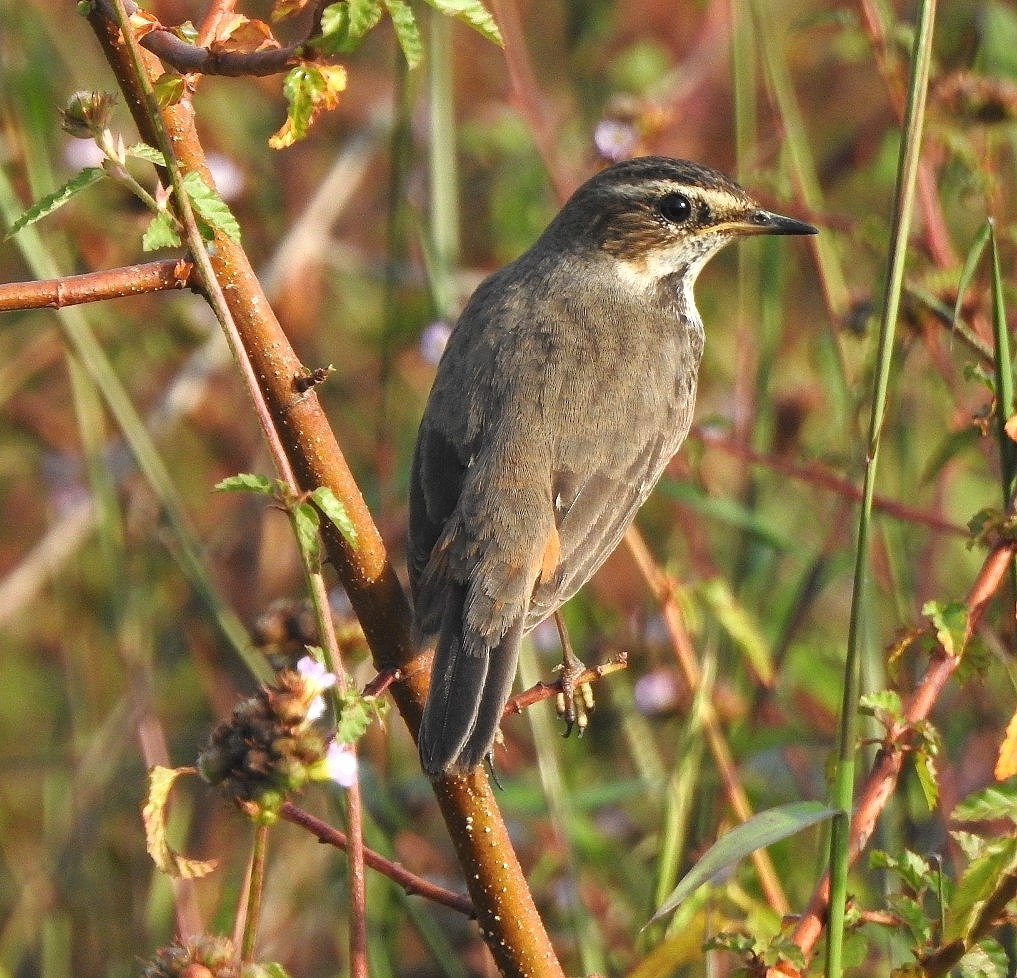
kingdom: Animalia
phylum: Chordata
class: Aves
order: Passeriformes
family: Muscicapidae
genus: Luscinia
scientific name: Luscinia svecica
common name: Bluethroat
